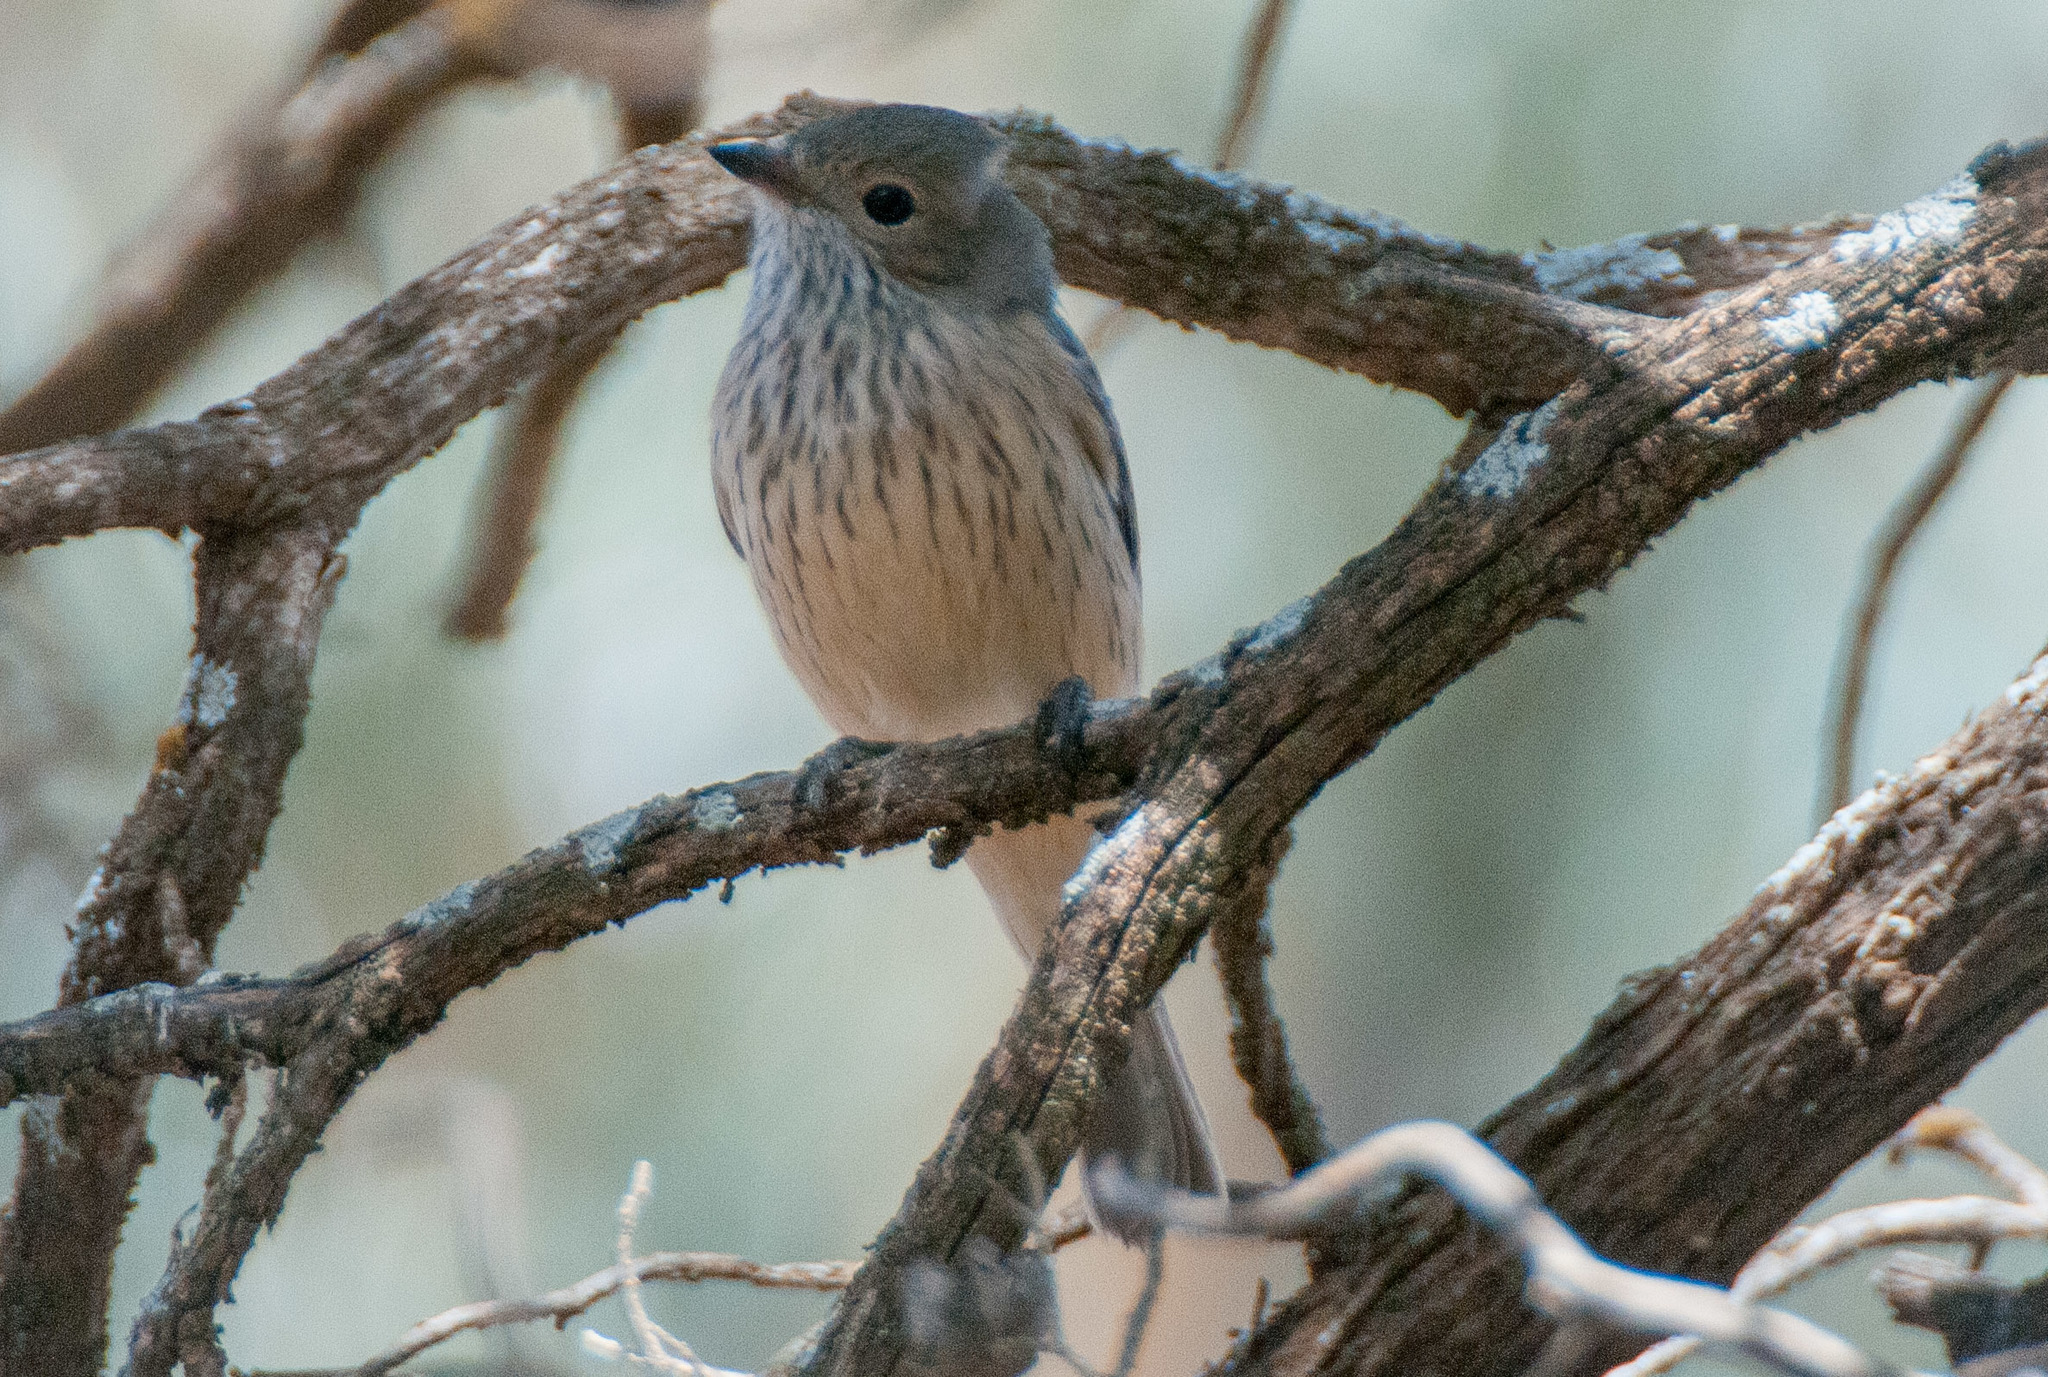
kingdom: Animalia
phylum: Chordata
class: Aves
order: Passeriformes
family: Pachycephalidae
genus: Pachycephala
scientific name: Pachycephala rufiventris
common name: Rufous whistler
